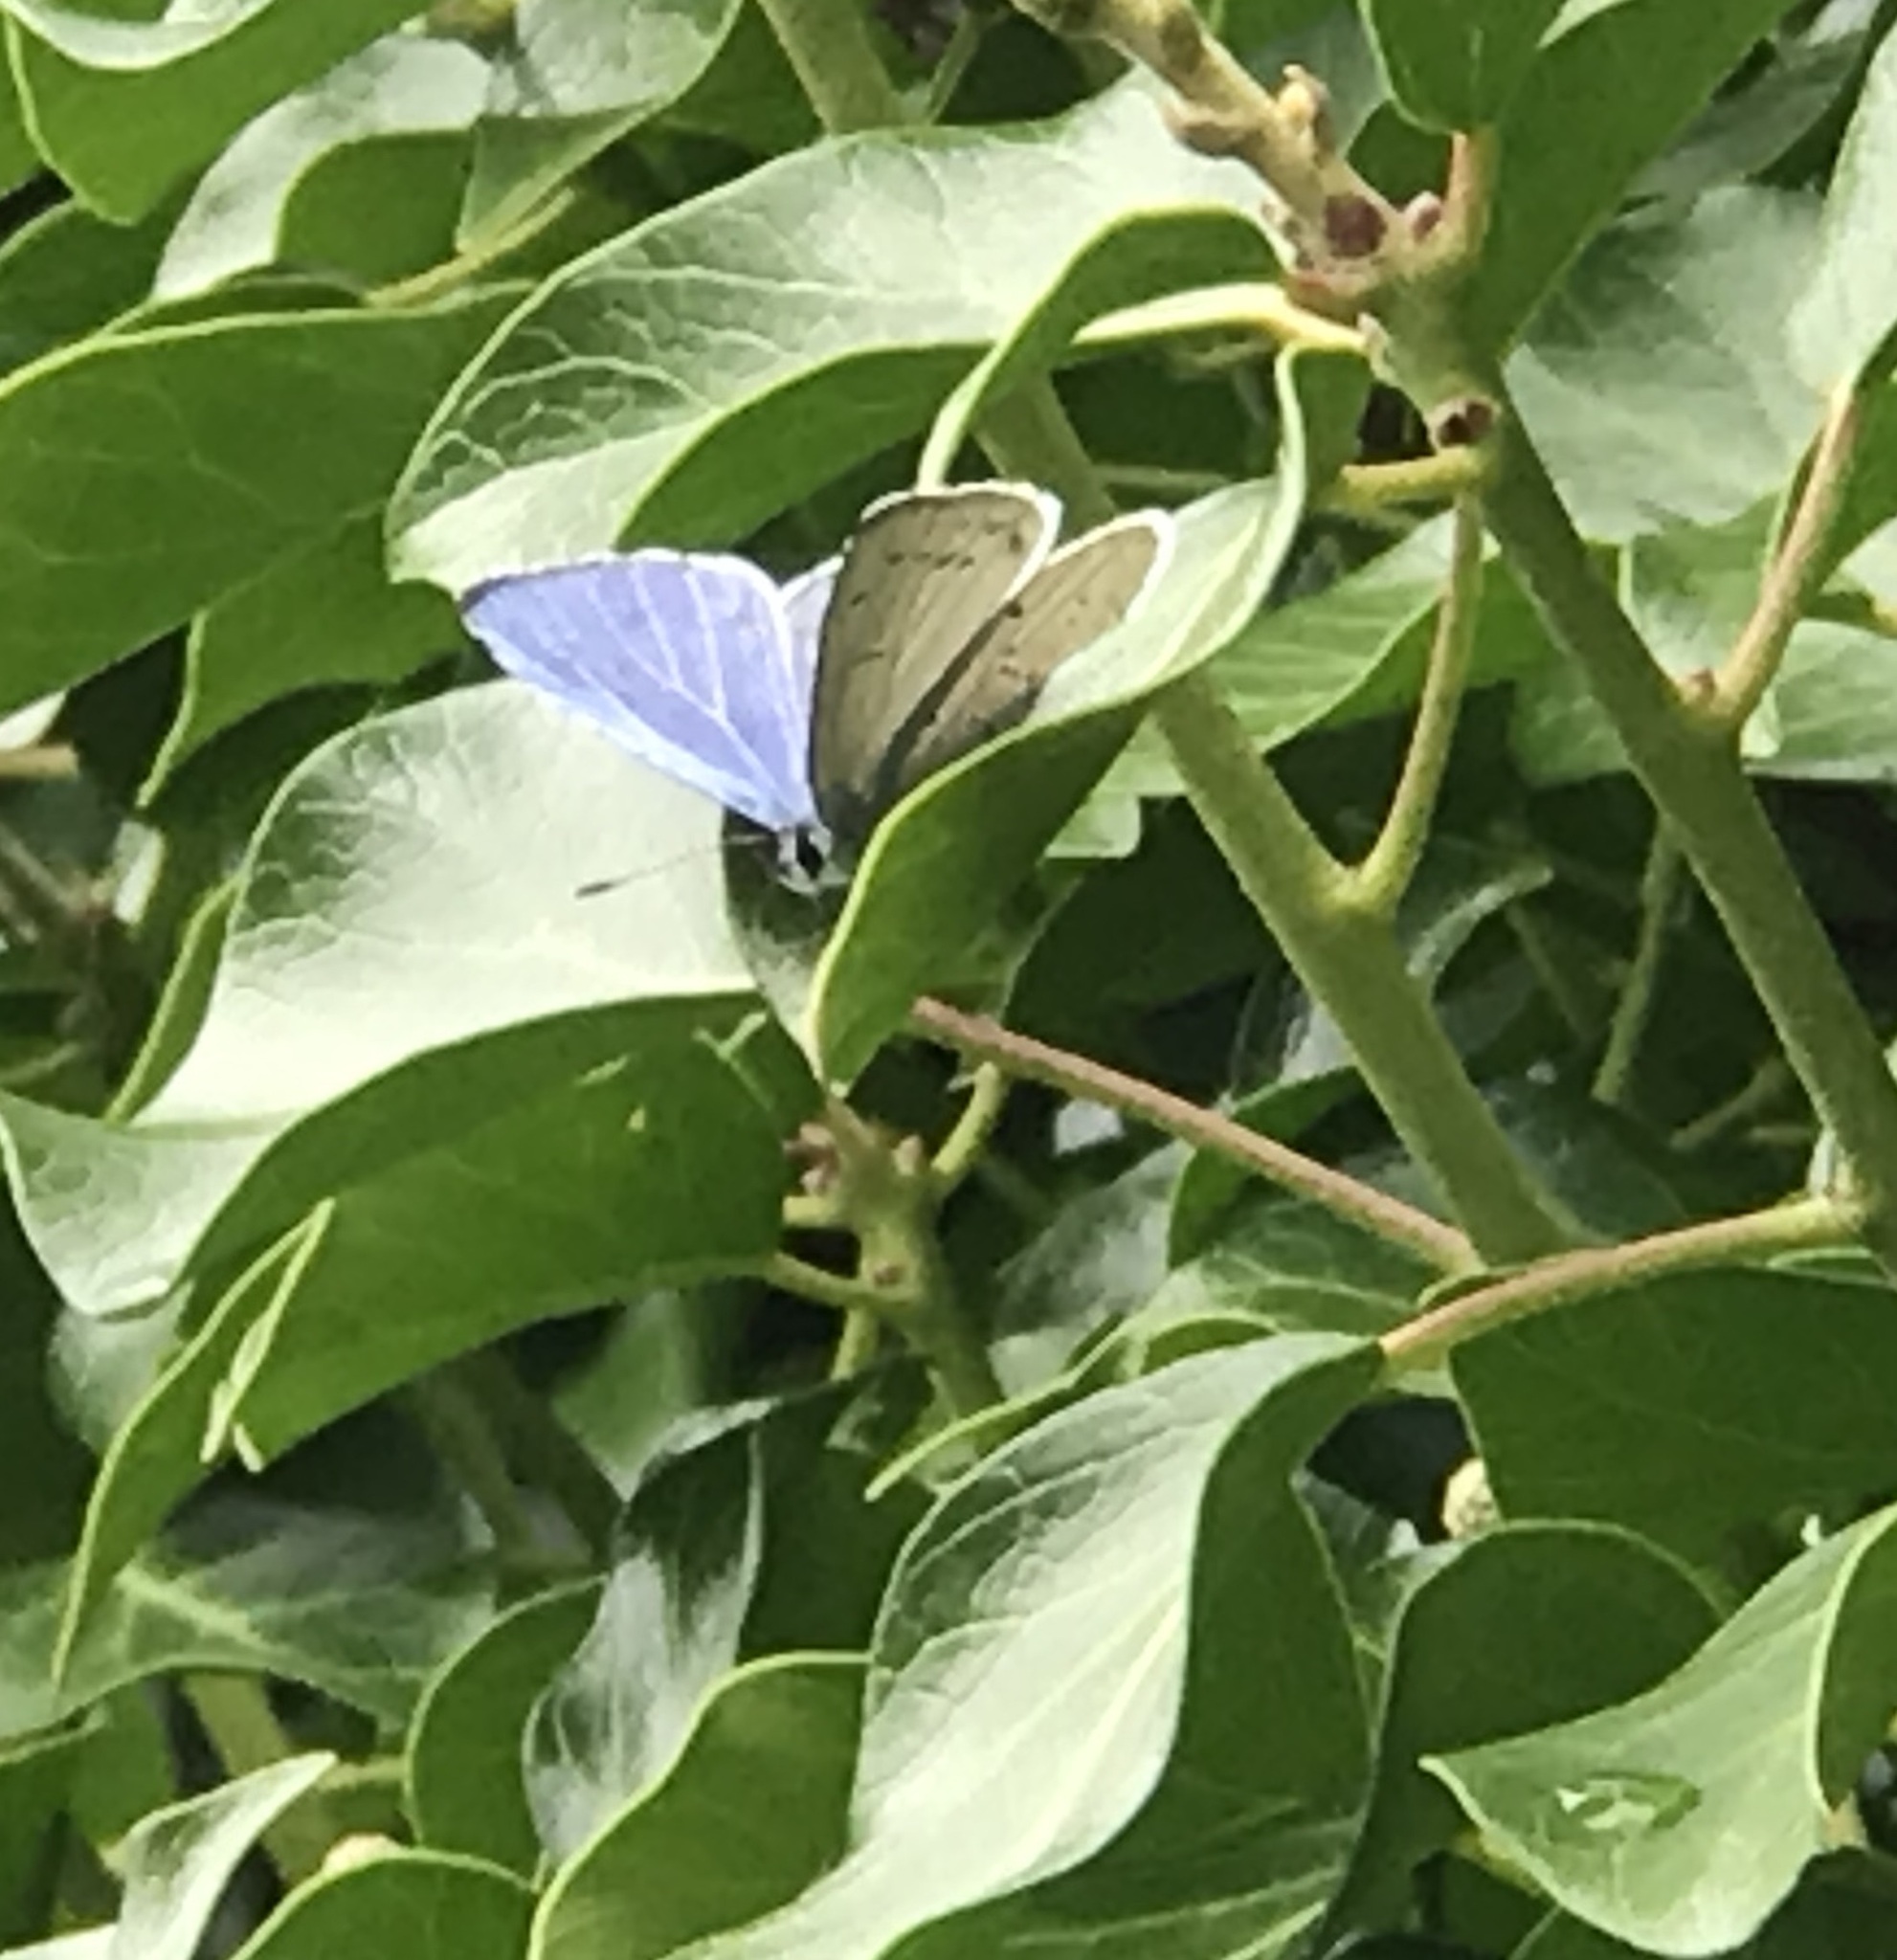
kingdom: Animalia
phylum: Arthropoda
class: Insecta
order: Lepidoptera
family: Lycaenidae
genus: Celastrina
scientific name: Celastrina argiolus
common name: Holly blue
